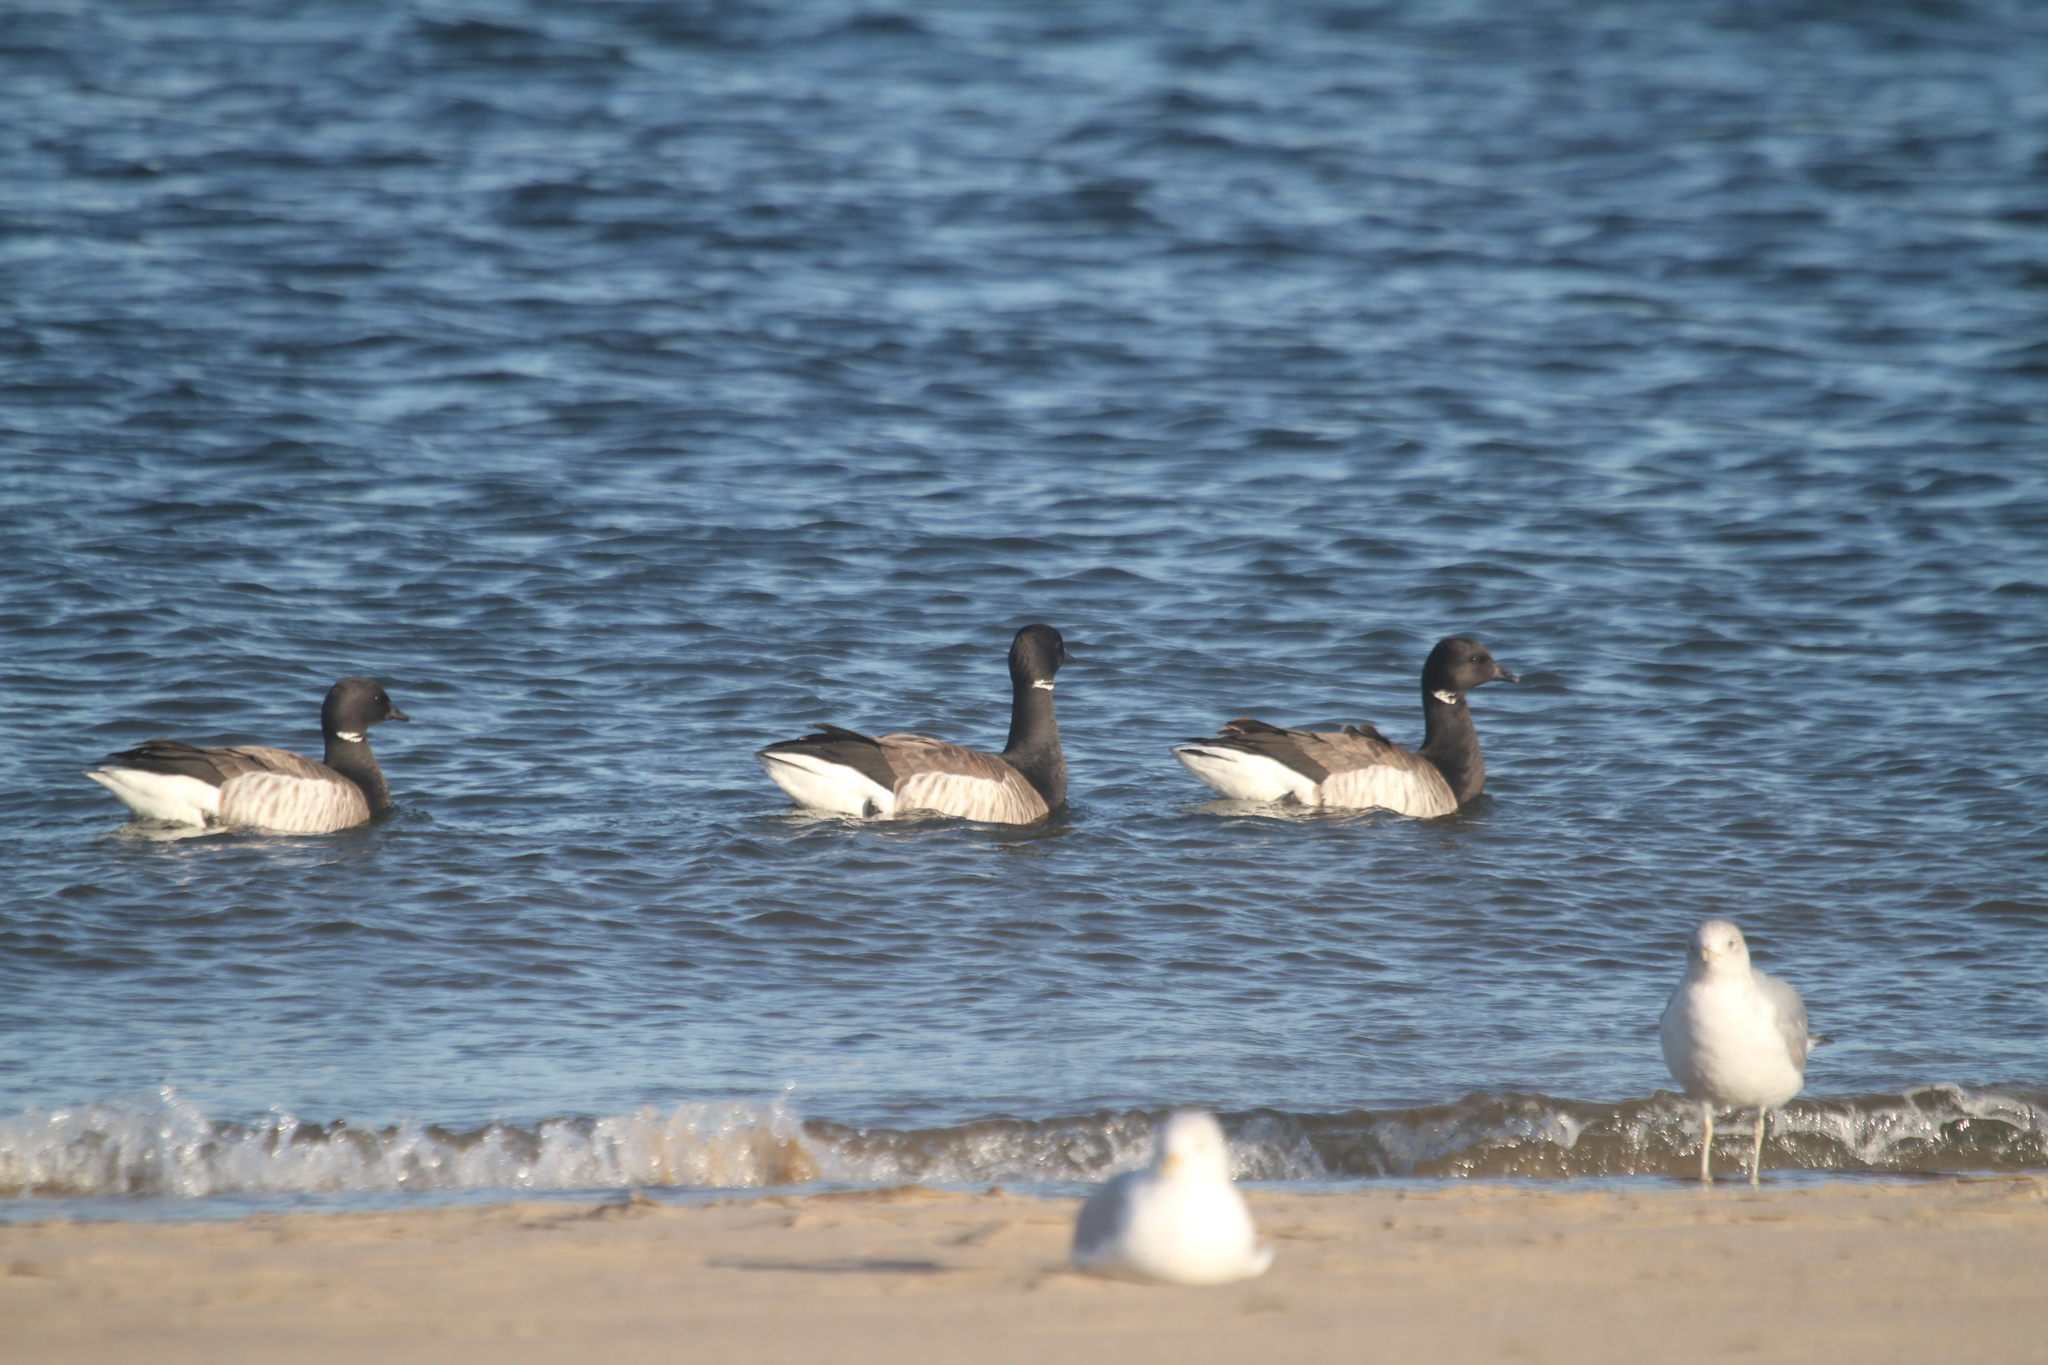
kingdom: Animalia
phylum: Chordata
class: Aves
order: Anseriformes
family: Anatidae
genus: Branta
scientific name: Branta bernicla
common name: Brant goose
